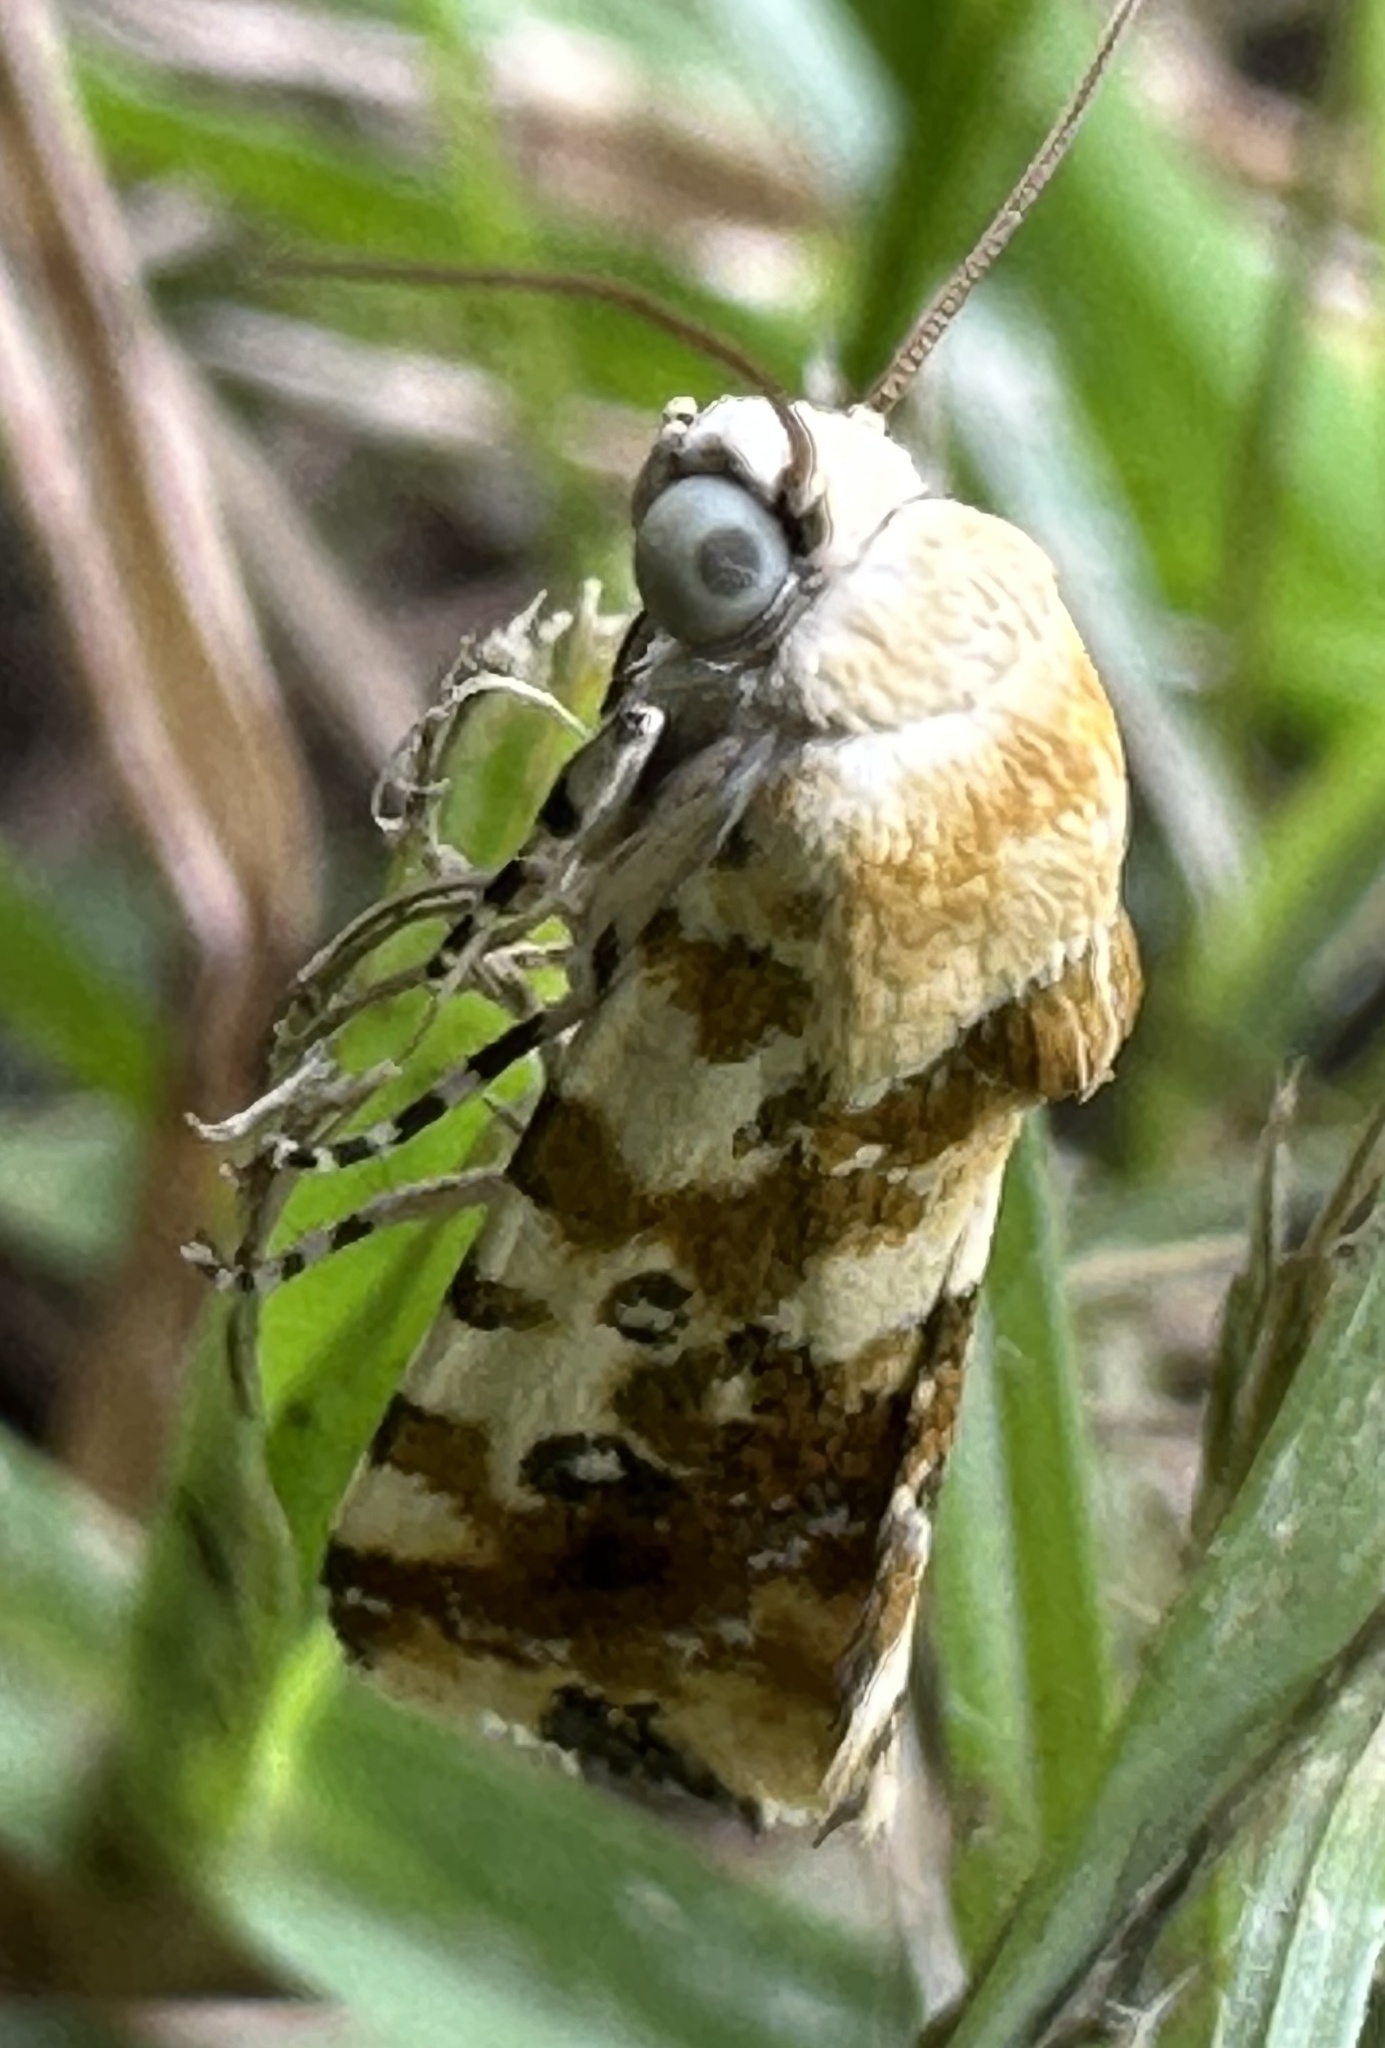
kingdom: Animalia
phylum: Arthropoda
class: Insecta
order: Lepidoptera
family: Noctuidae
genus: Acontia
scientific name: Acontia zelleri
